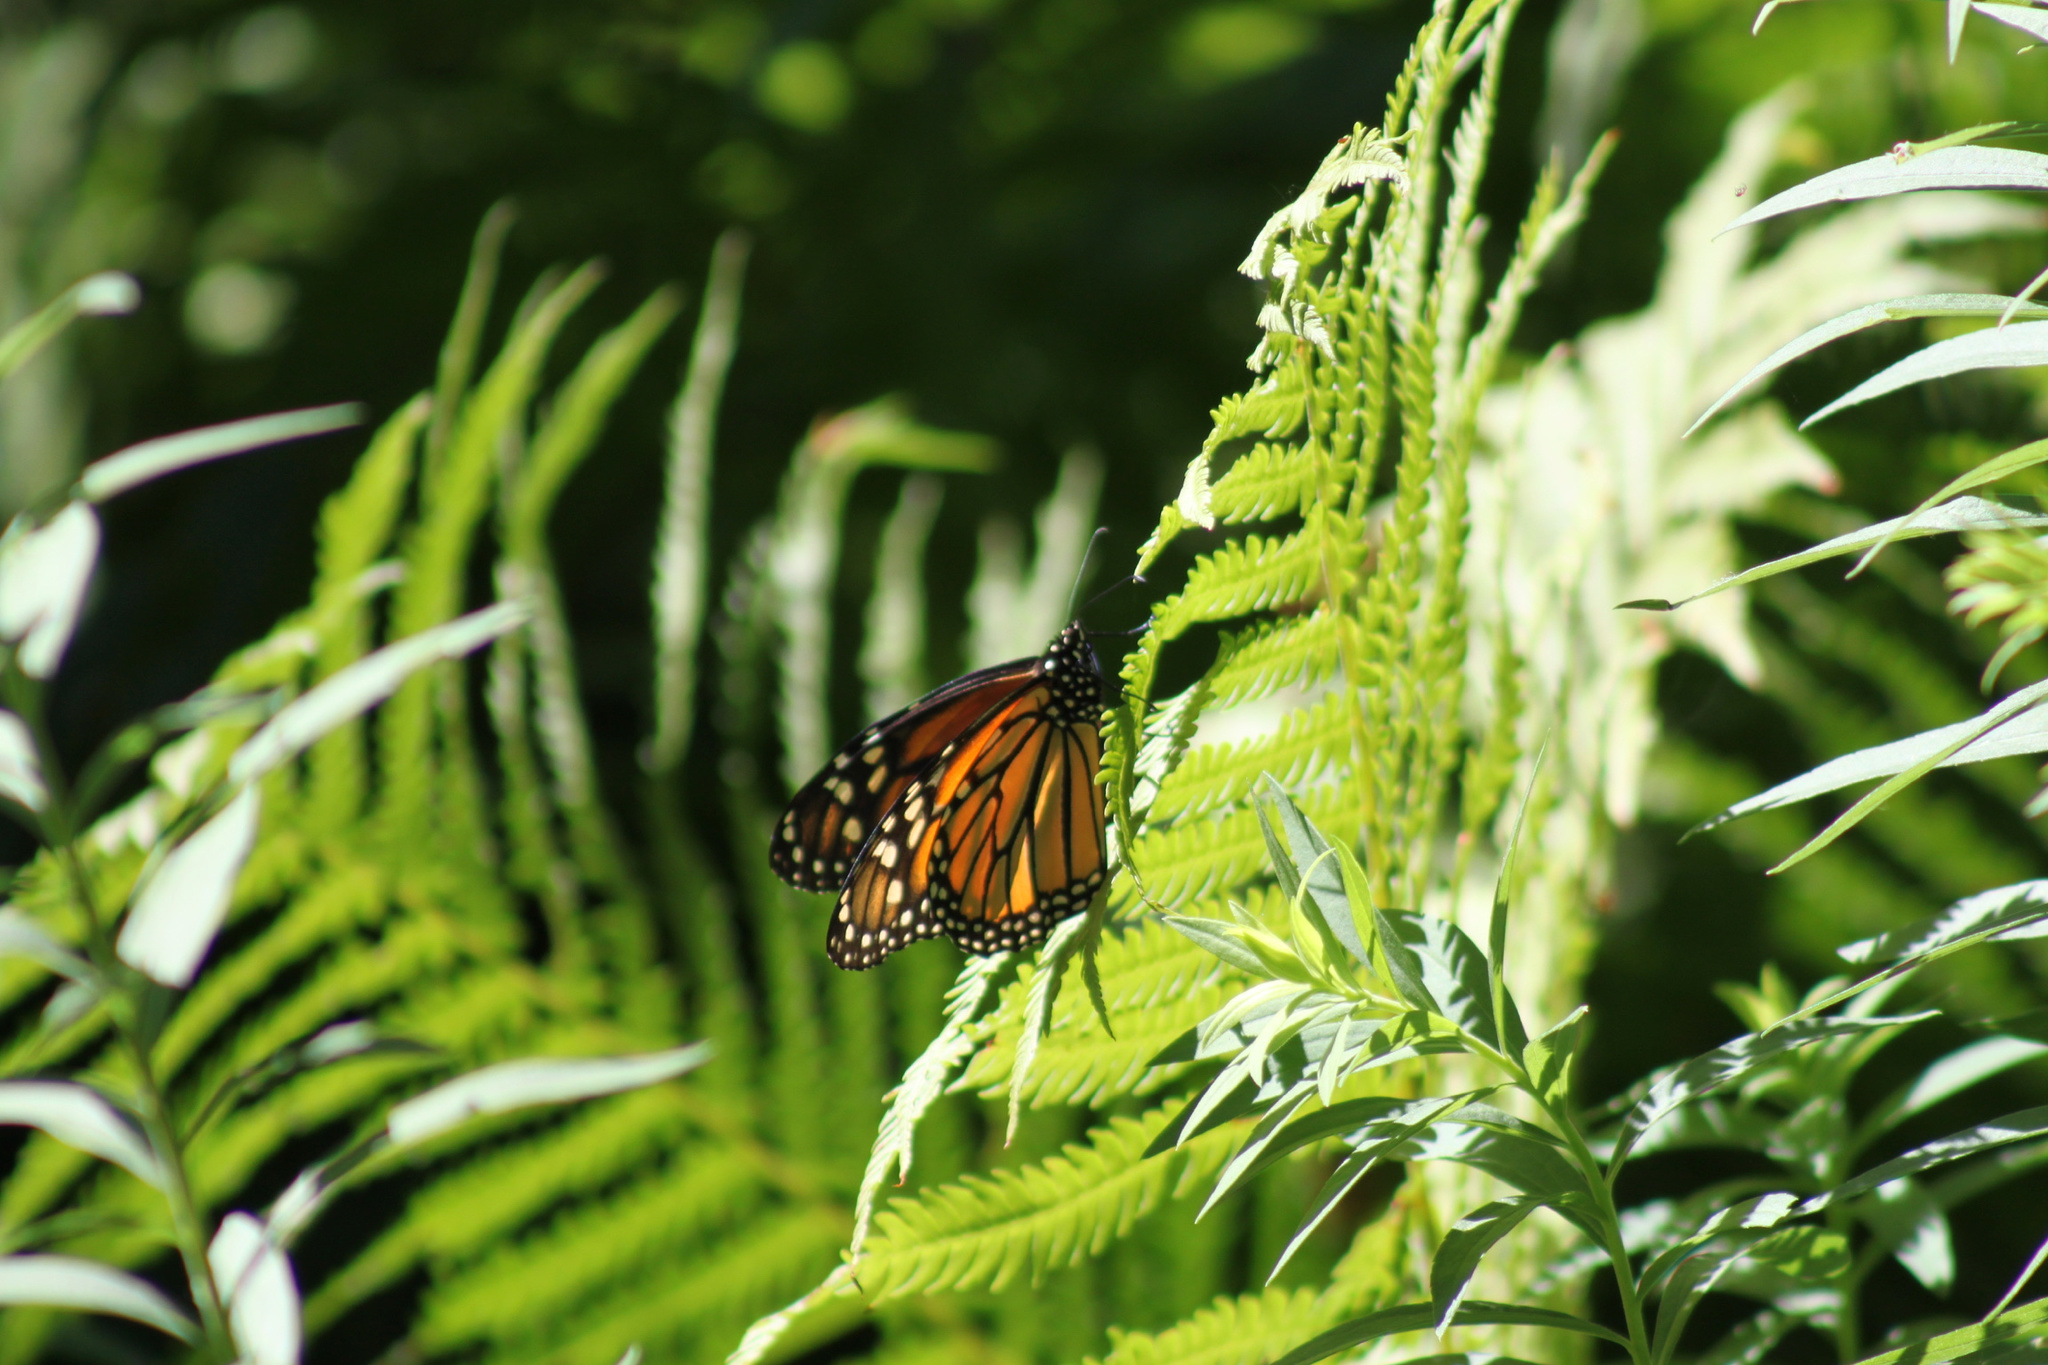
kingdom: Animalia
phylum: Arthropoda
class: Insecta
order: Lepidoptera
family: Nymphalidae
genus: Danaus
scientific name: Danaus plexippus
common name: Monarch
